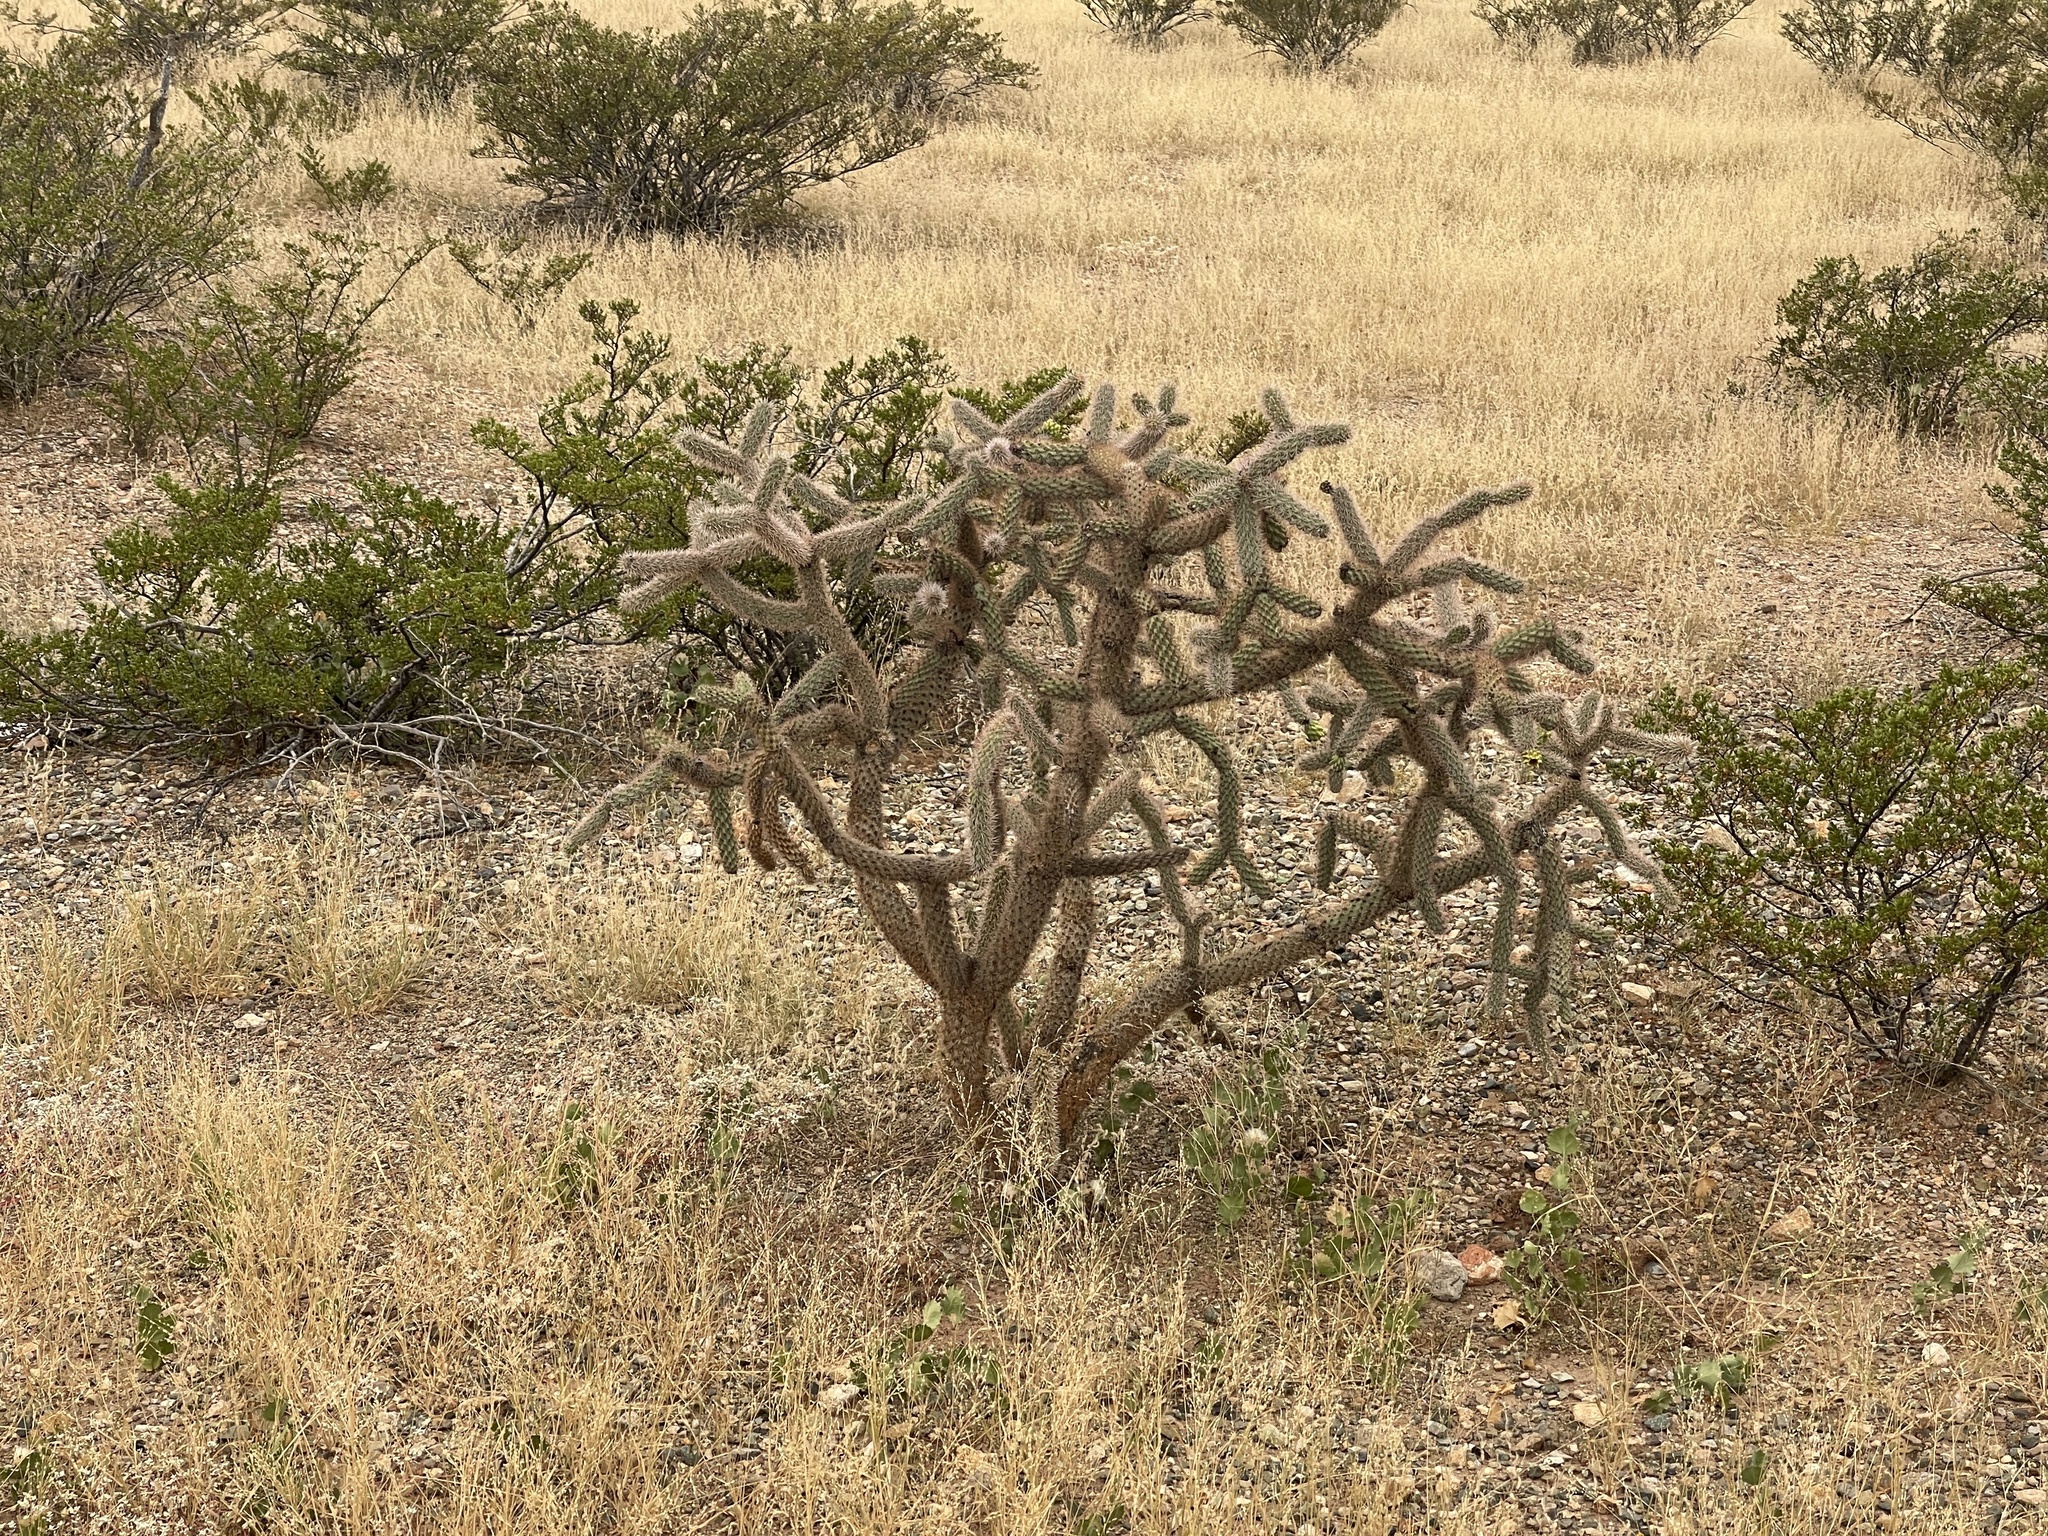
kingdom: Plantae
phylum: Tracheophyta
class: Magnoliopsida
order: Caryophyllales
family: Cactaceae
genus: Cylindropuntia
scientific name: Cylindropuntia imbricata
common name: Candelabrum cactus
